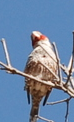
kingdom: Animalia
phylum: Chordata
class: Aves
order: Passeriformes
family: Estrildidae
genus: Amadina
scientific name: Amadina erythrocephala
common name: Red-headed finch
